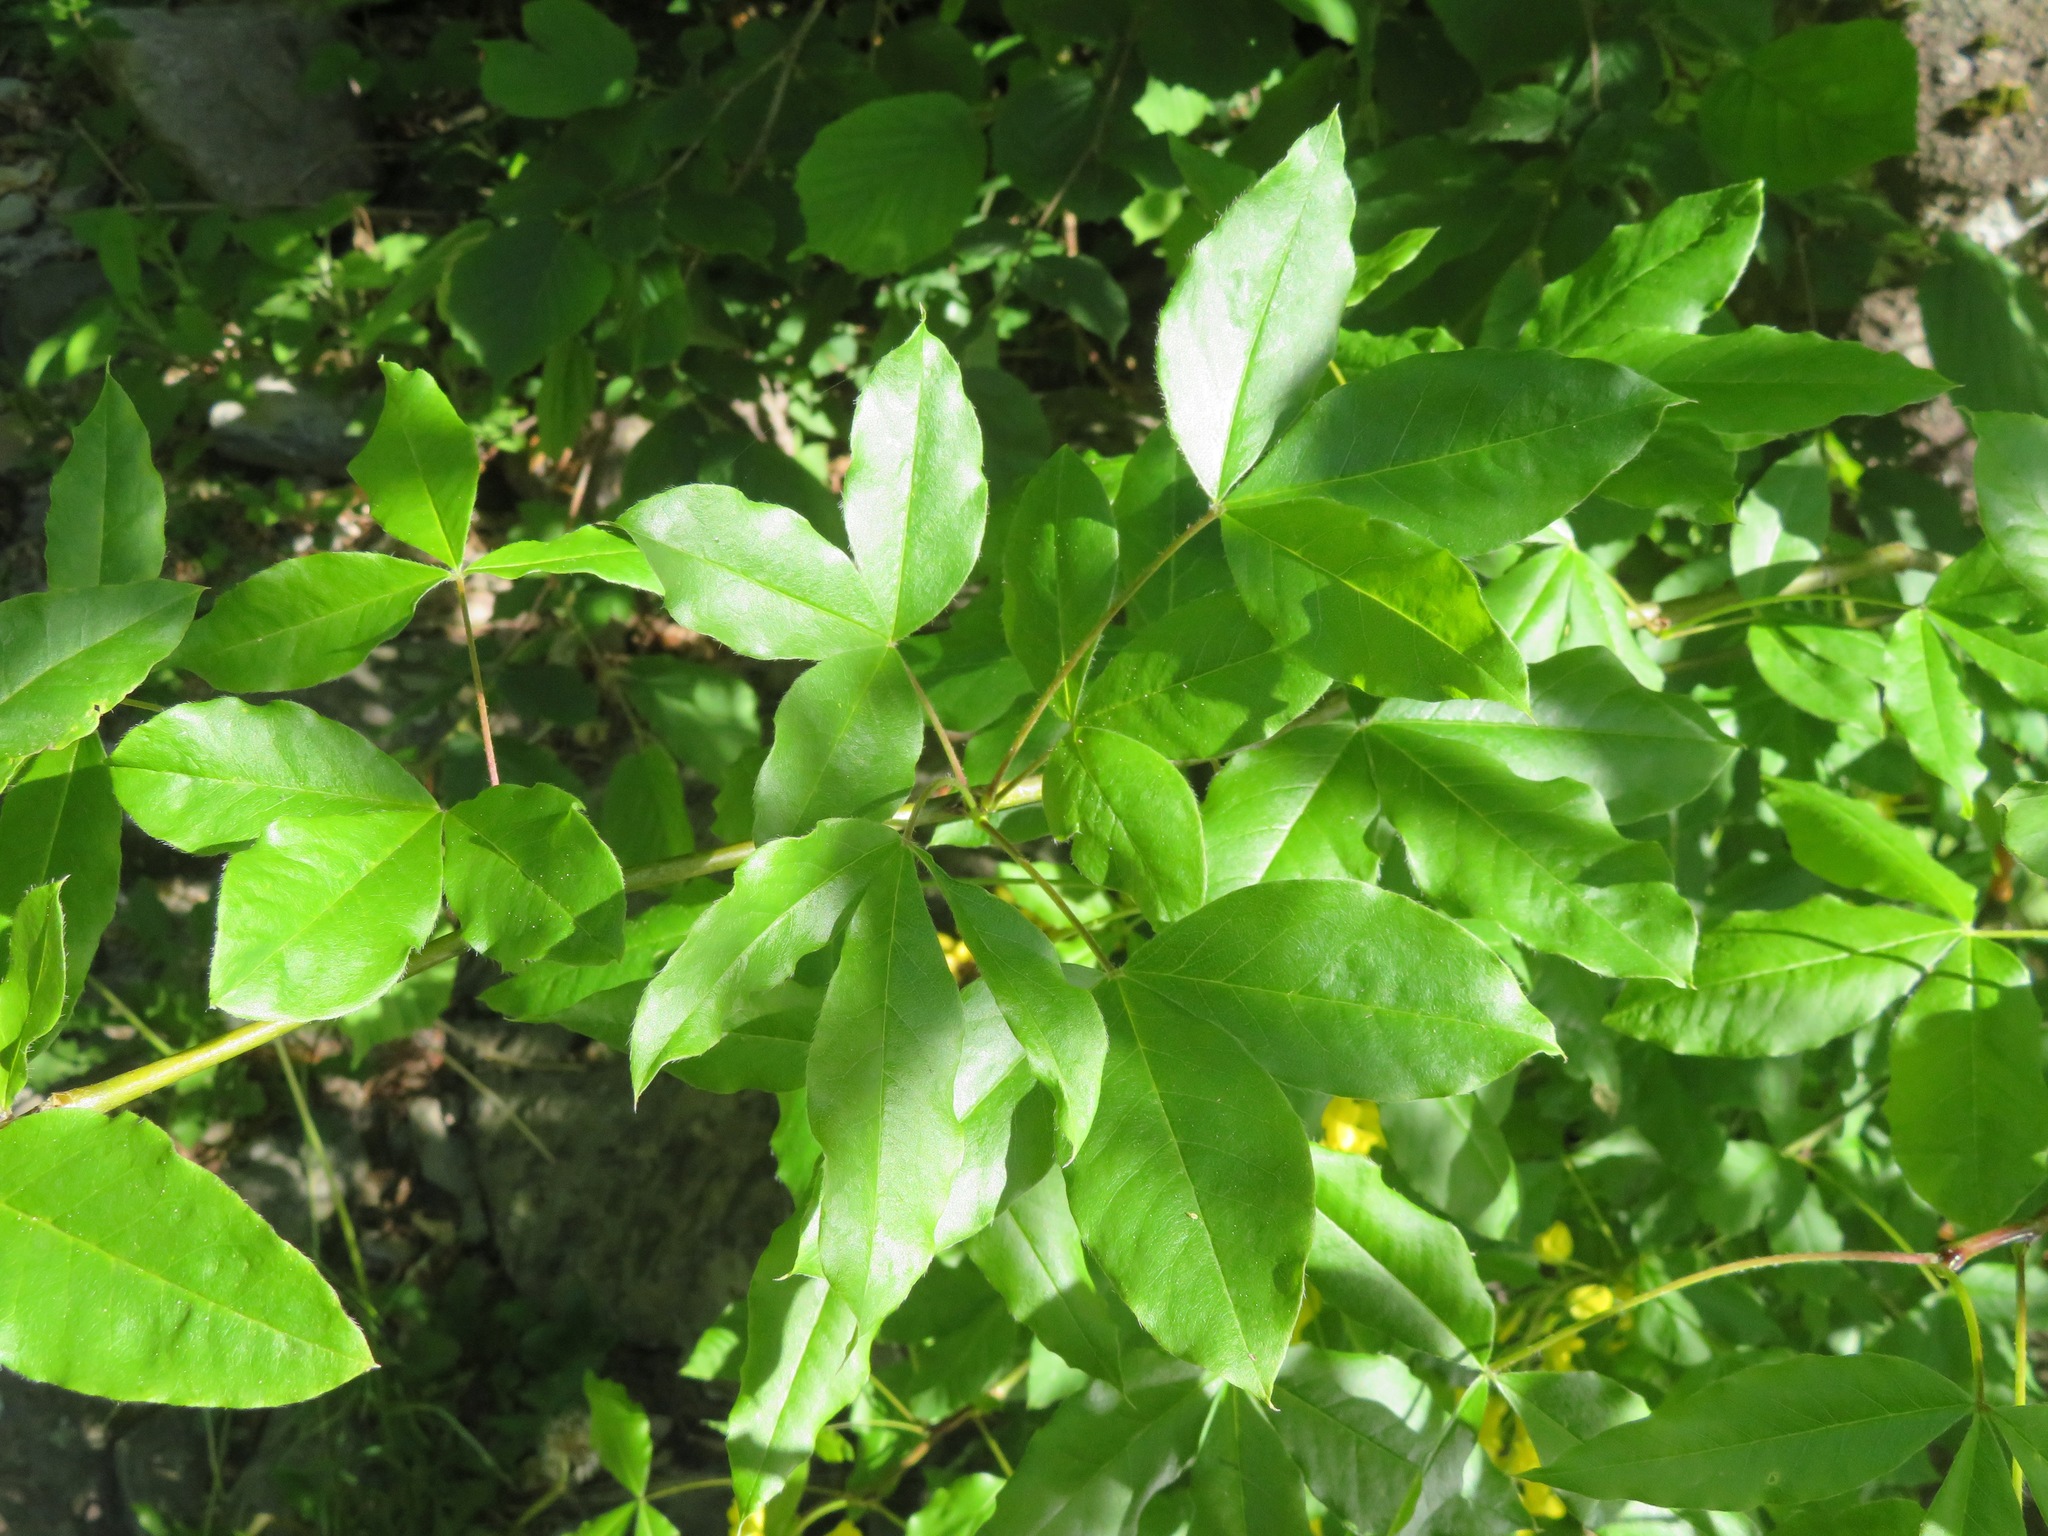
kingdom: Plantae
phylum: Tracheophyta
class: Magnoliopsida
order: Fabales
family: Fabaceae
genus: Laburnum
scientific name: Laburnum alpinum
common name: Scottish laburnum
